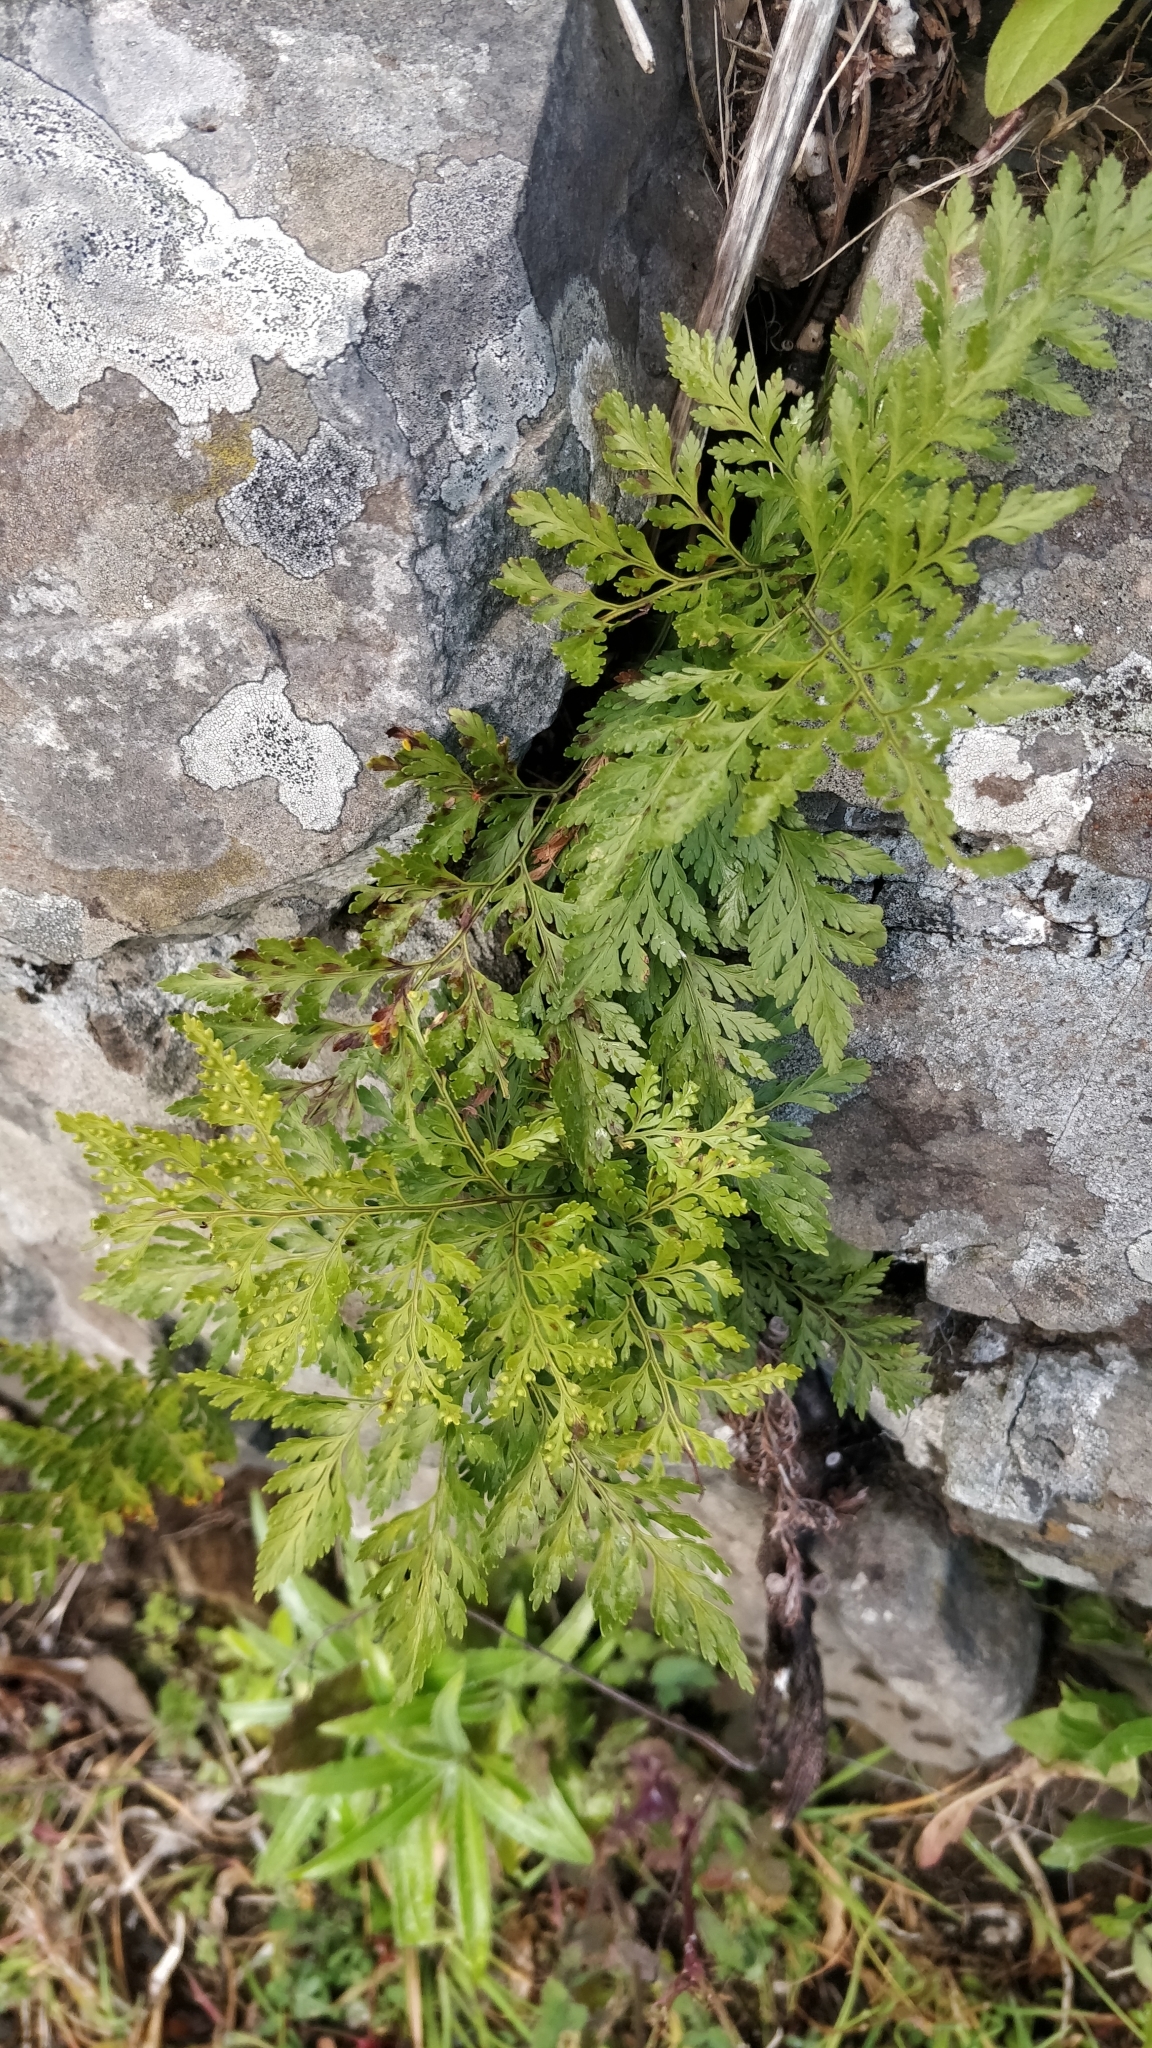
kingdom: Plantae
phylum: Tracheophyta
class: Polypodiopsida
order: Polypodiales
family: Davalliaceae
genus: Davallia
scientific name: Davallia canariensis
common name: Hare's-foot fern
